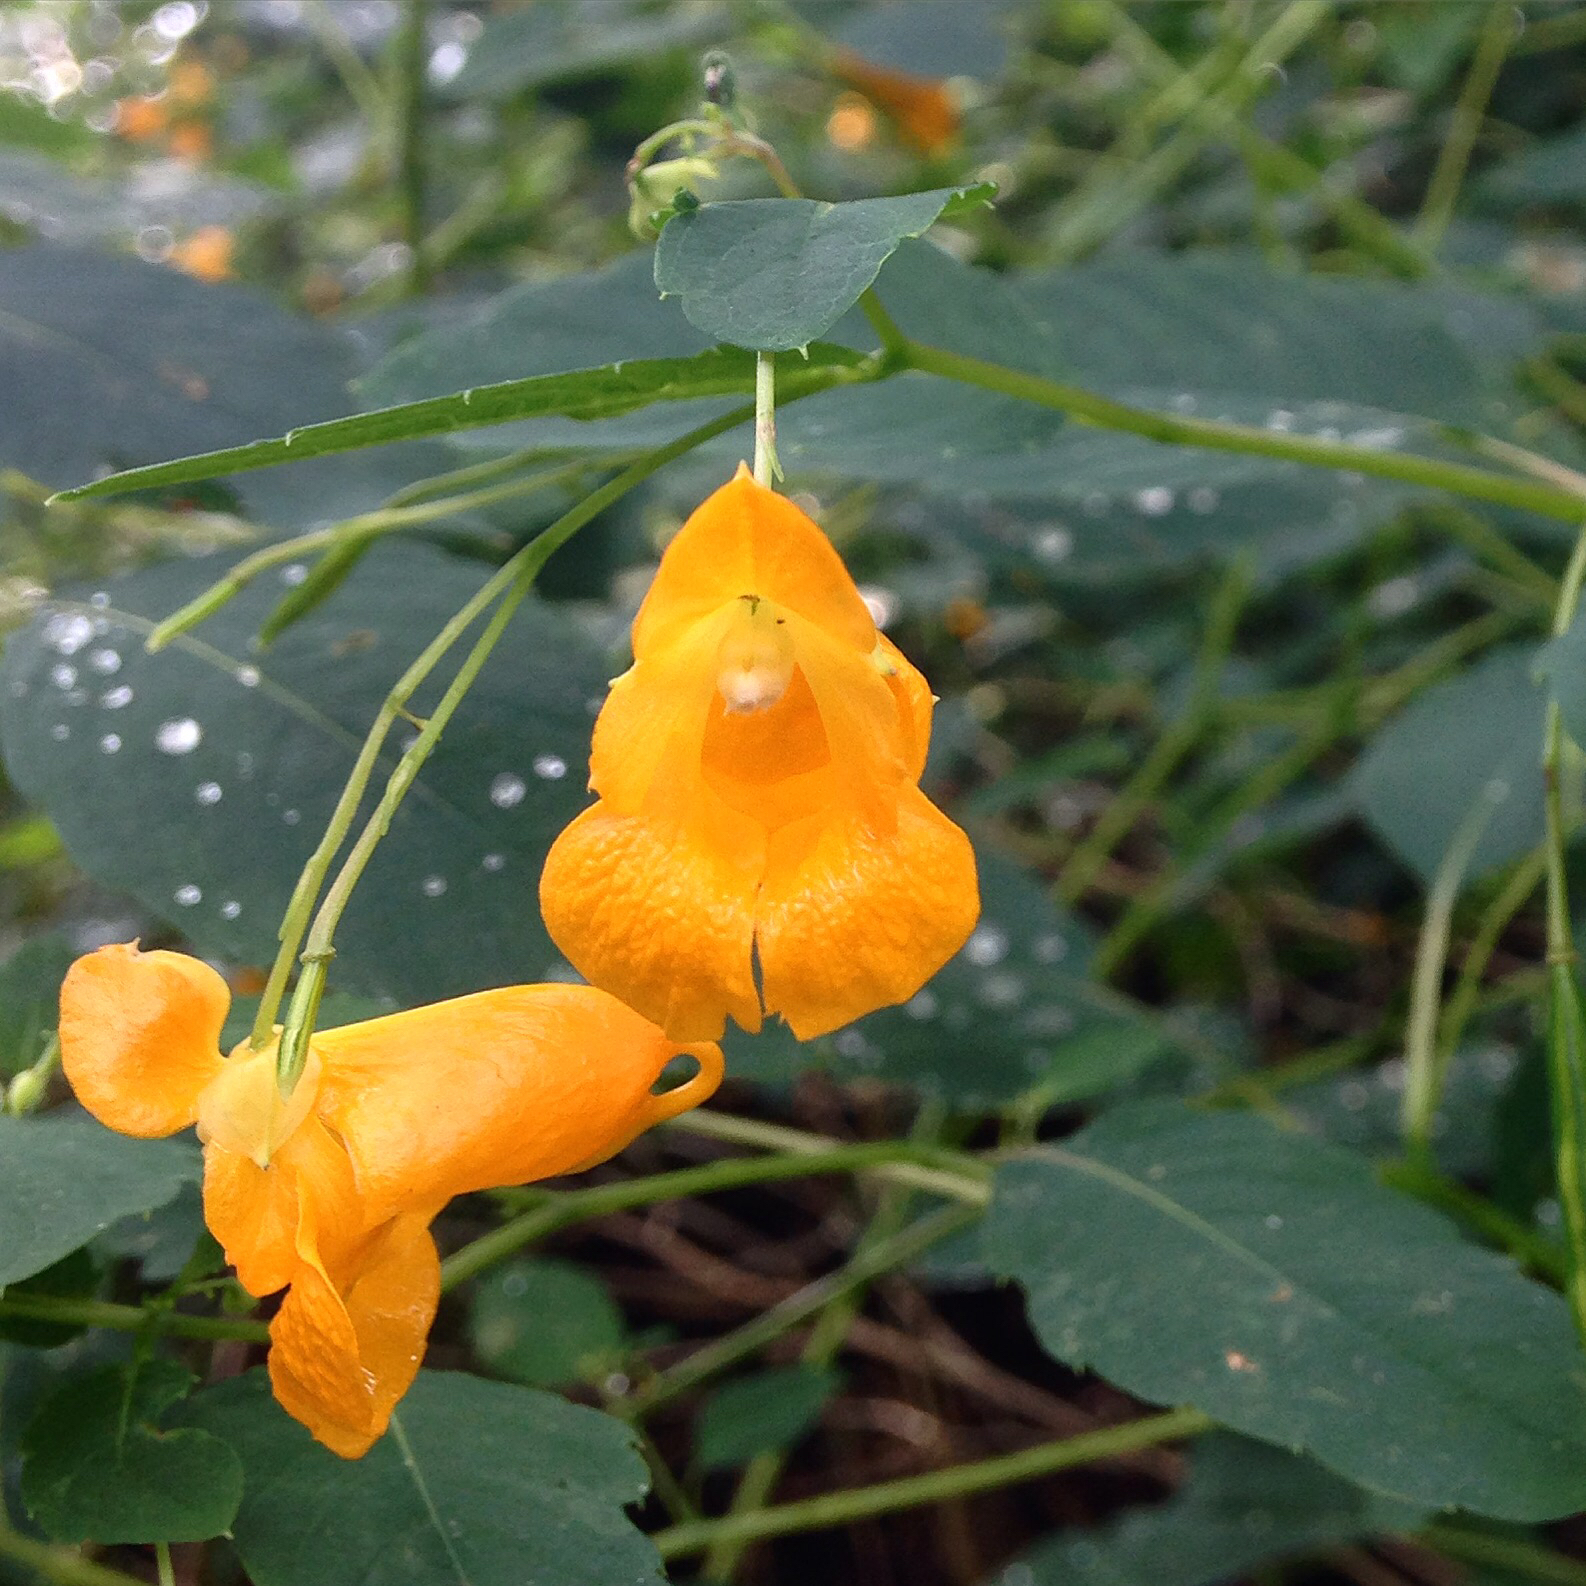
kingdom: Plantae
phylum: Tracheophyta
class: Magnoliopsida
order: Ericales
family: Balsaminaceae
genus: Impatiens
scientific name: Impatiens capensis
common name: Orange balsam
